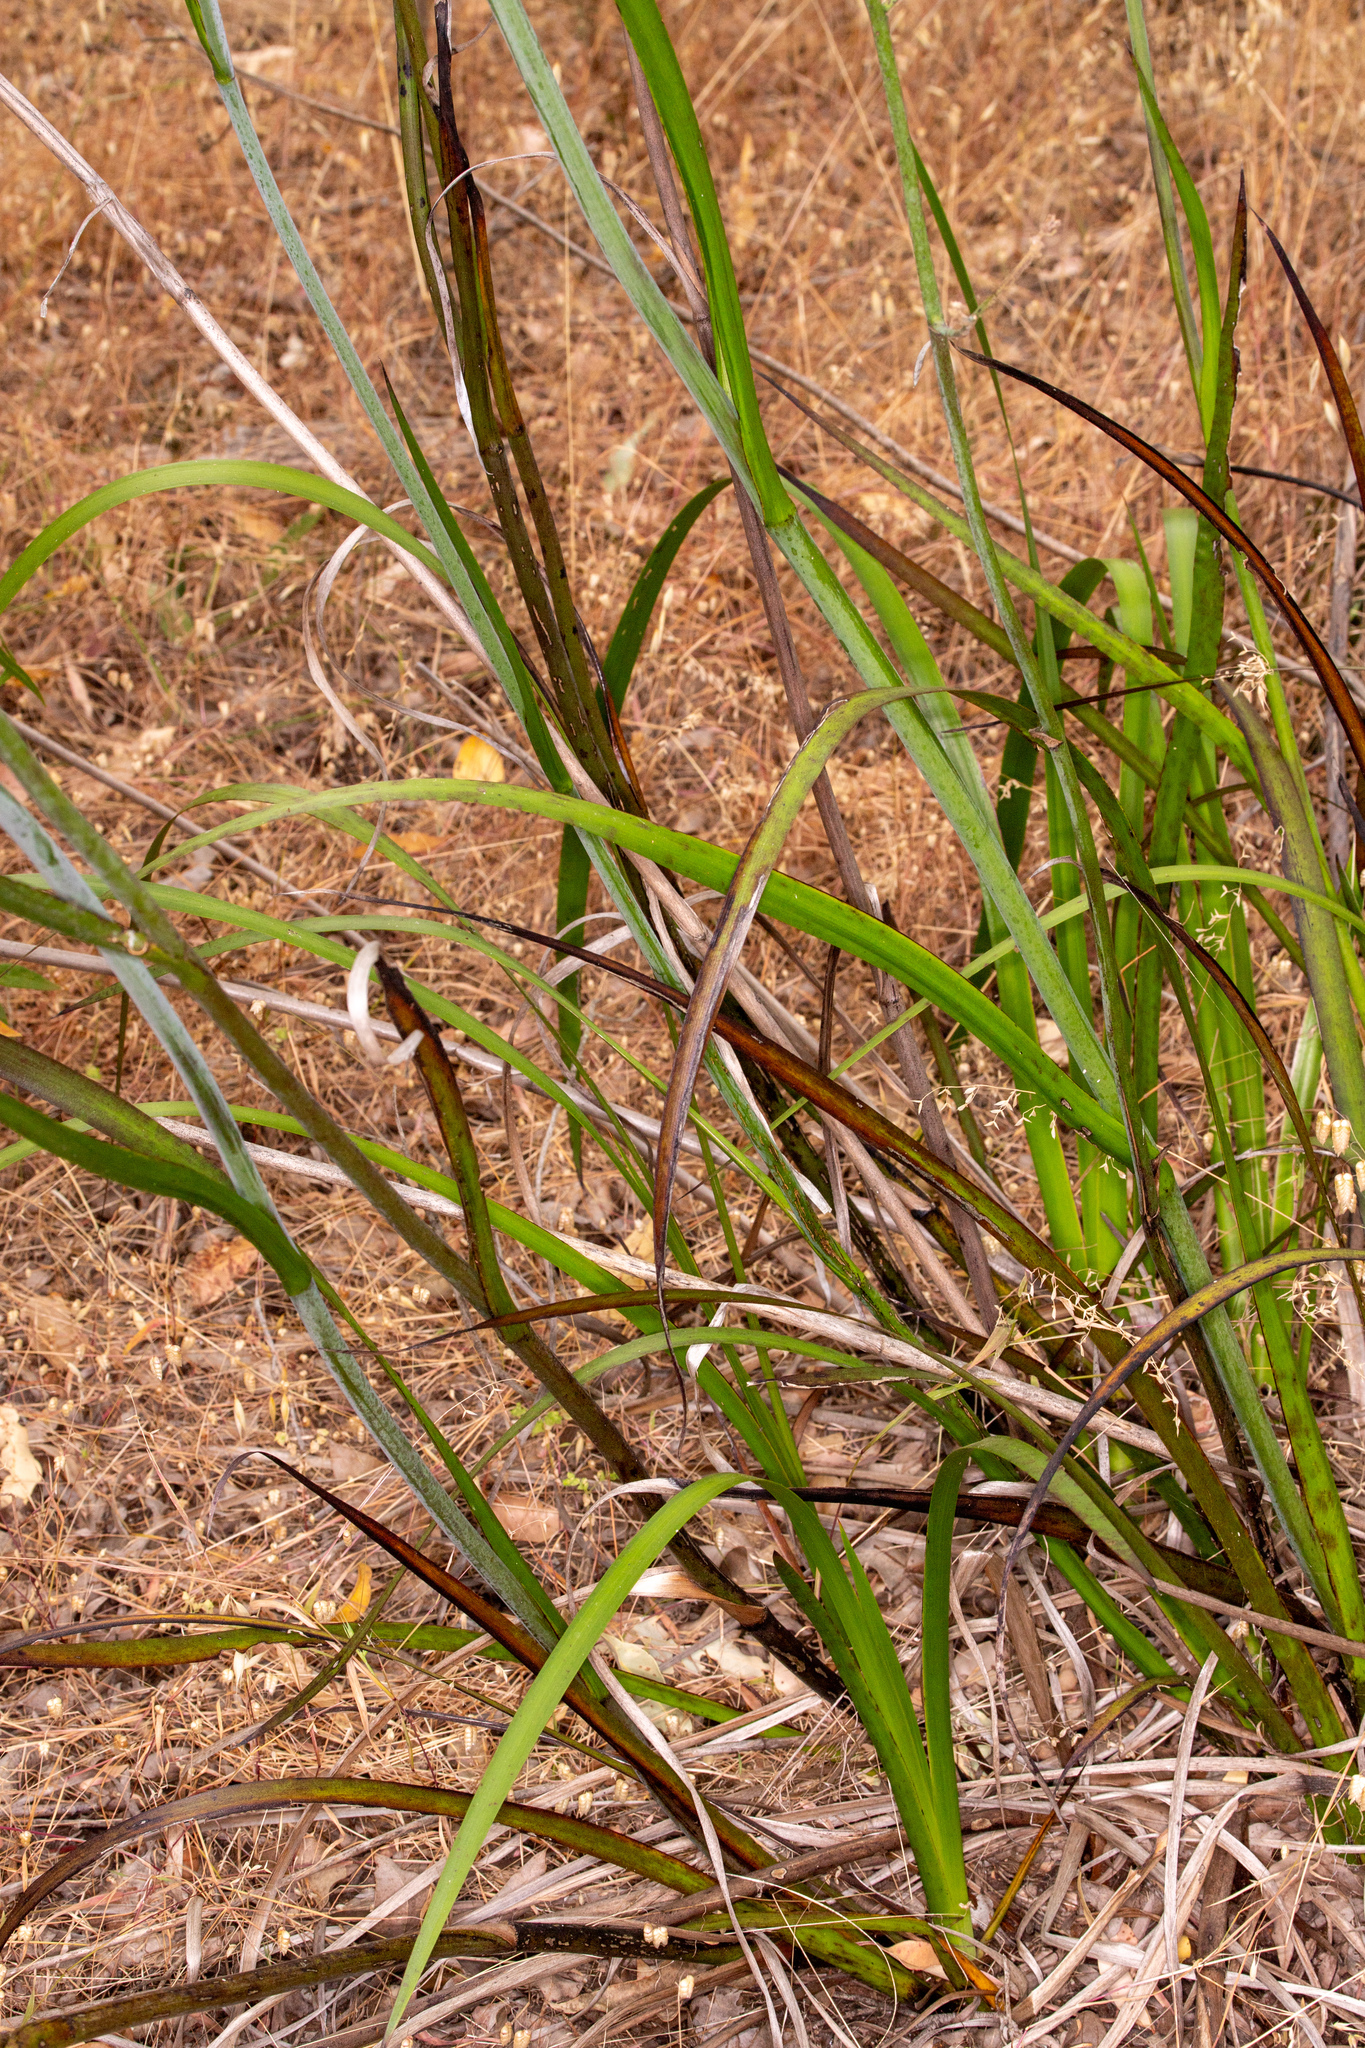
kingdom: Plantae
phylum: Tracheophyta
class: Liliopsida
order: Commelinales
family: Haemodoraceae
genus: Anigozanthos
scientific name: Anigozanthos viridis
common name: Green kangaroo-paw
